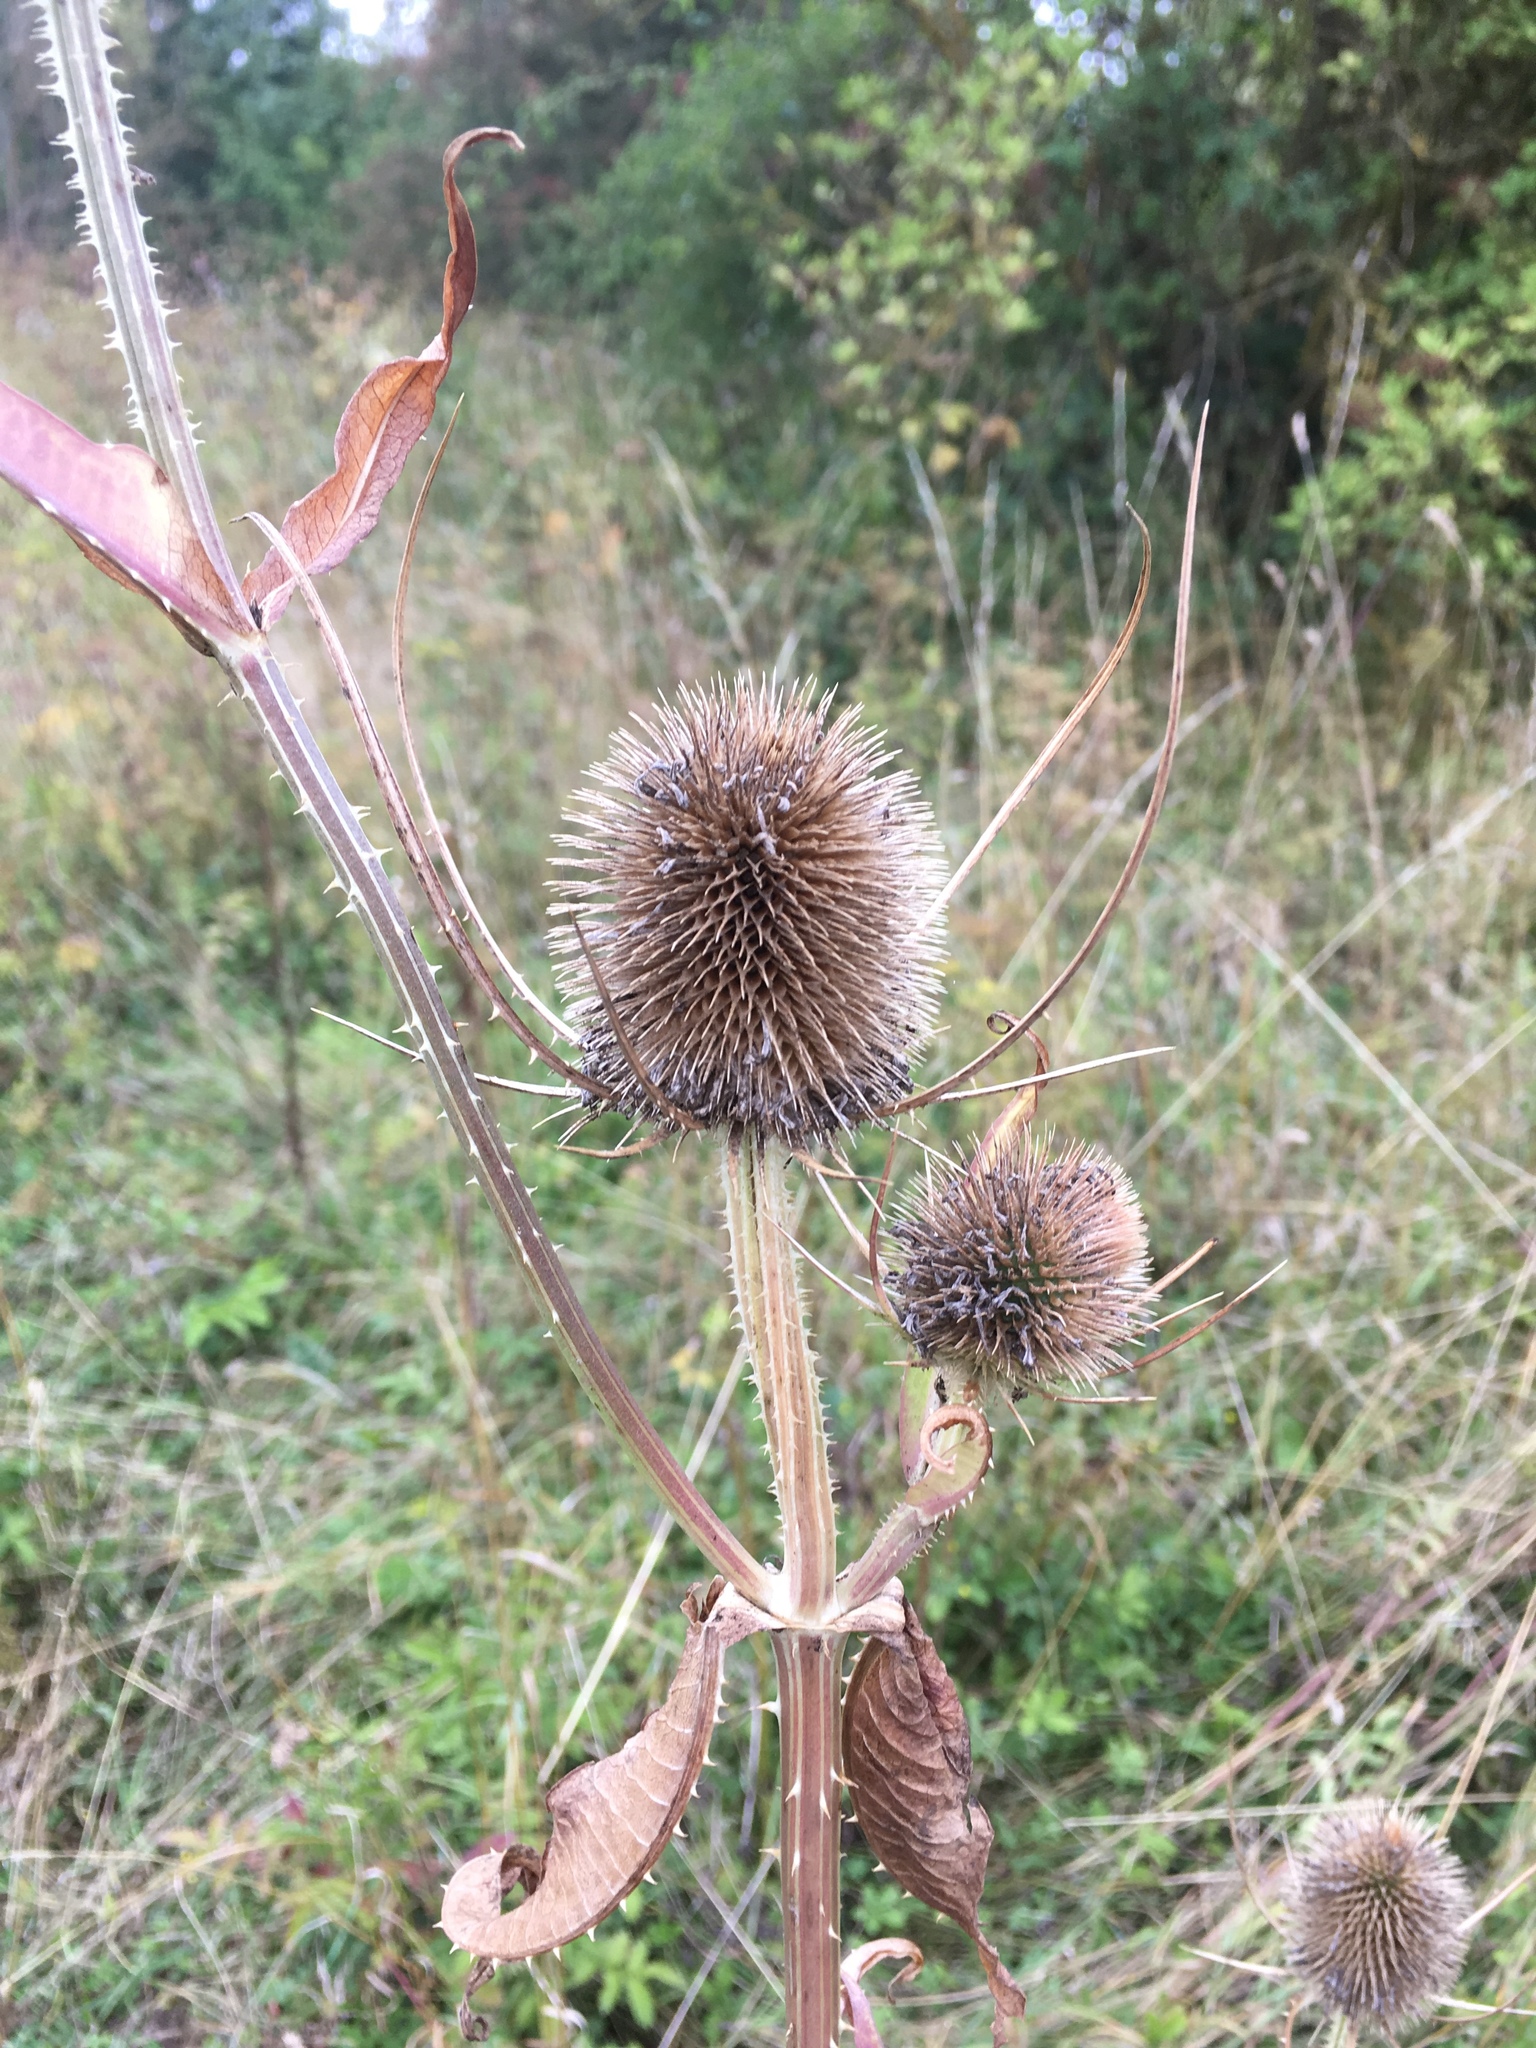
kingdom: Plantae
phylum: Tracheophyta
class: Magnoliopsida
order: Dipsacales
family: Caprifoliaceae
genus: Dipsacus
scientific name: Dipsacus fullonum
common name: Teasel
